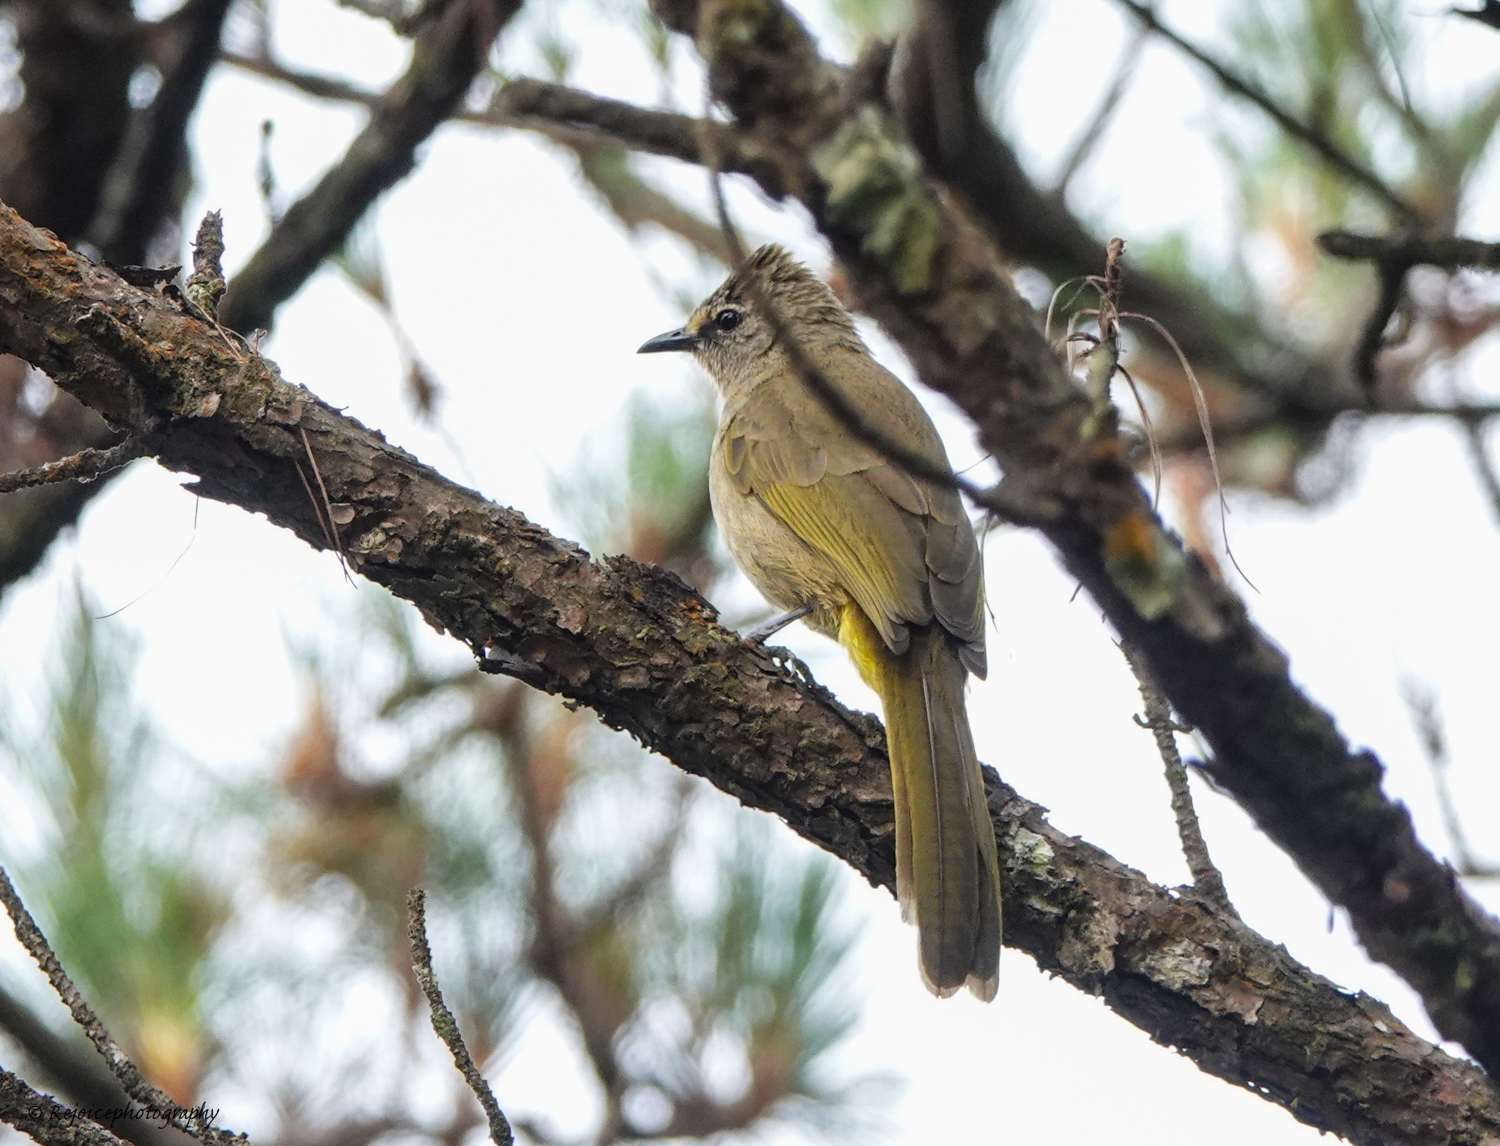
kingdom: Animalia
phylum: Chordata
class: Aves
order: Passeriformes
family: Pycnonotidae
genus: Pycnonotus
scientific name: Pycnonotus flavescens
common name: Flavescent bulbul
